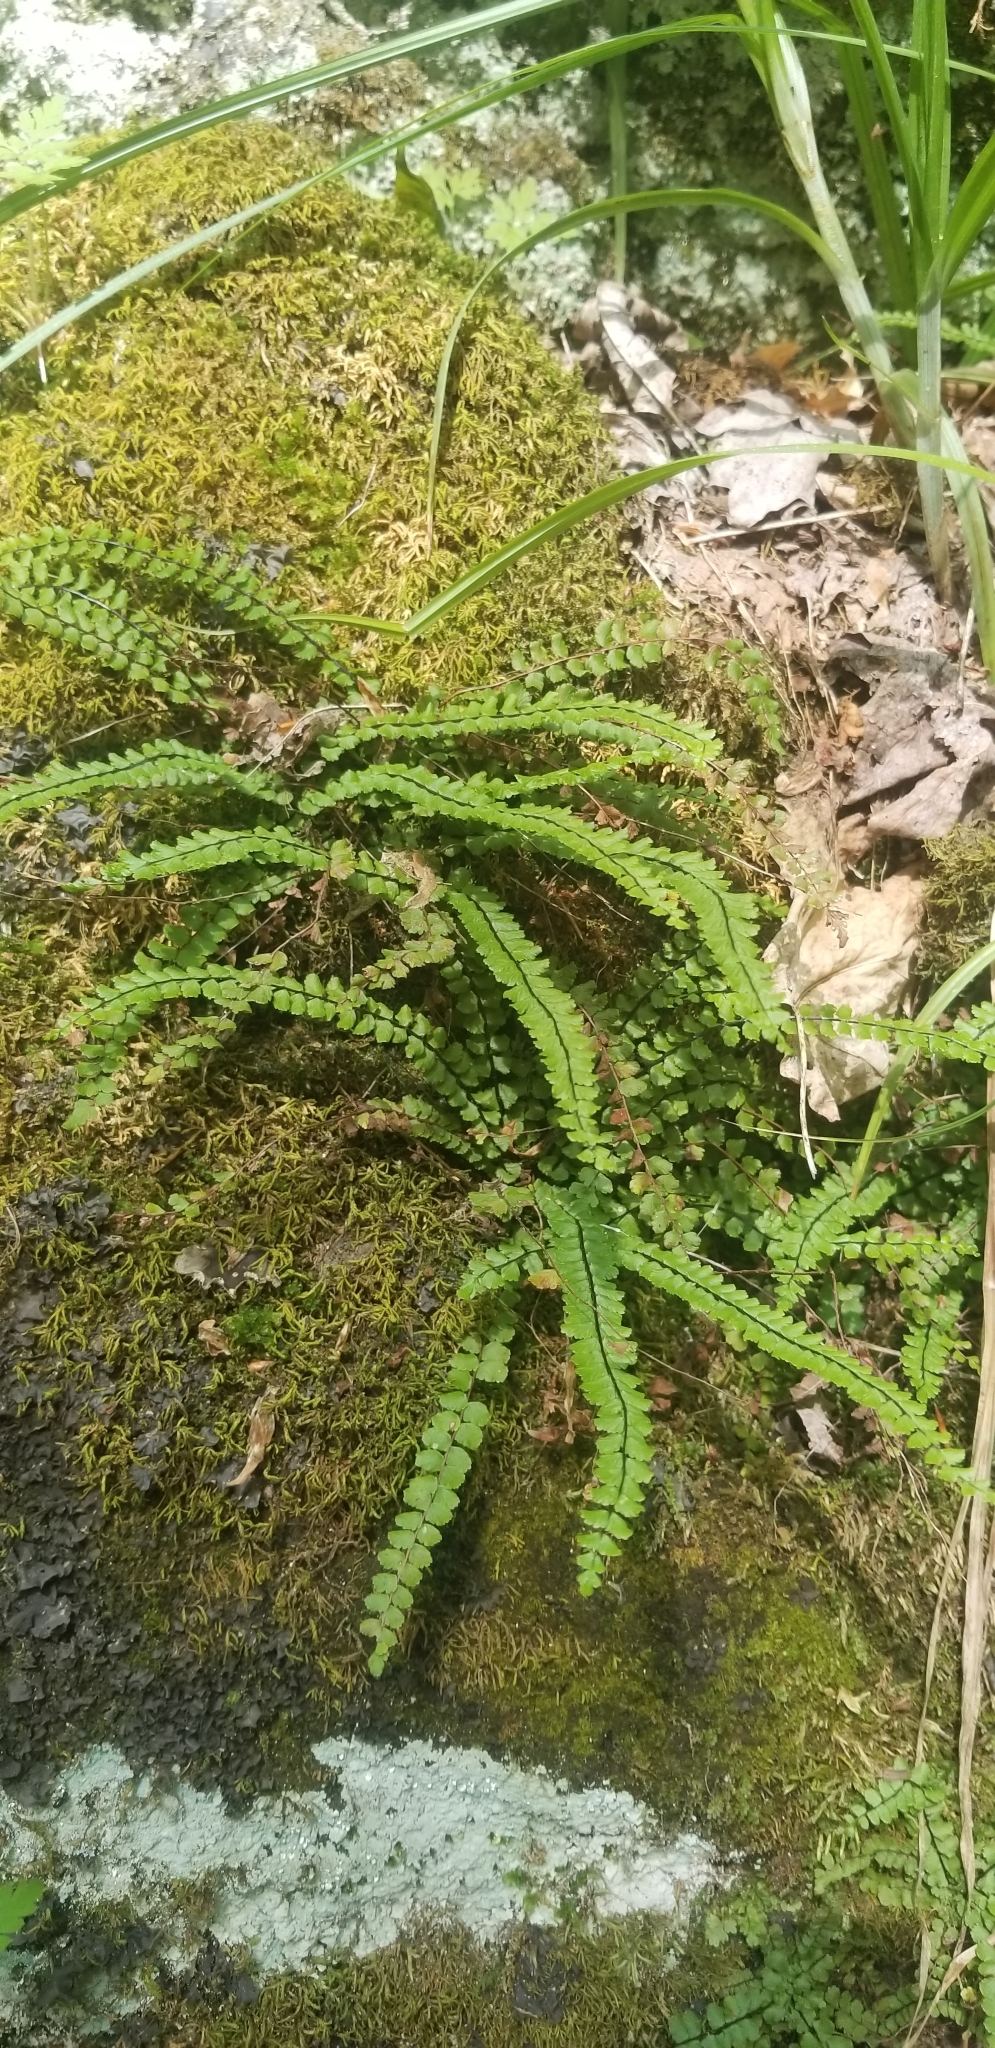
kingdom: Plantae
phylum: Tracheophyta
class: Polypodiopsida
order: Polypodiales
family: Aspleniaceae
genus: Asplenium
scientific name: Asplenium trichomanes
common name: Maidenhair spleenwort
